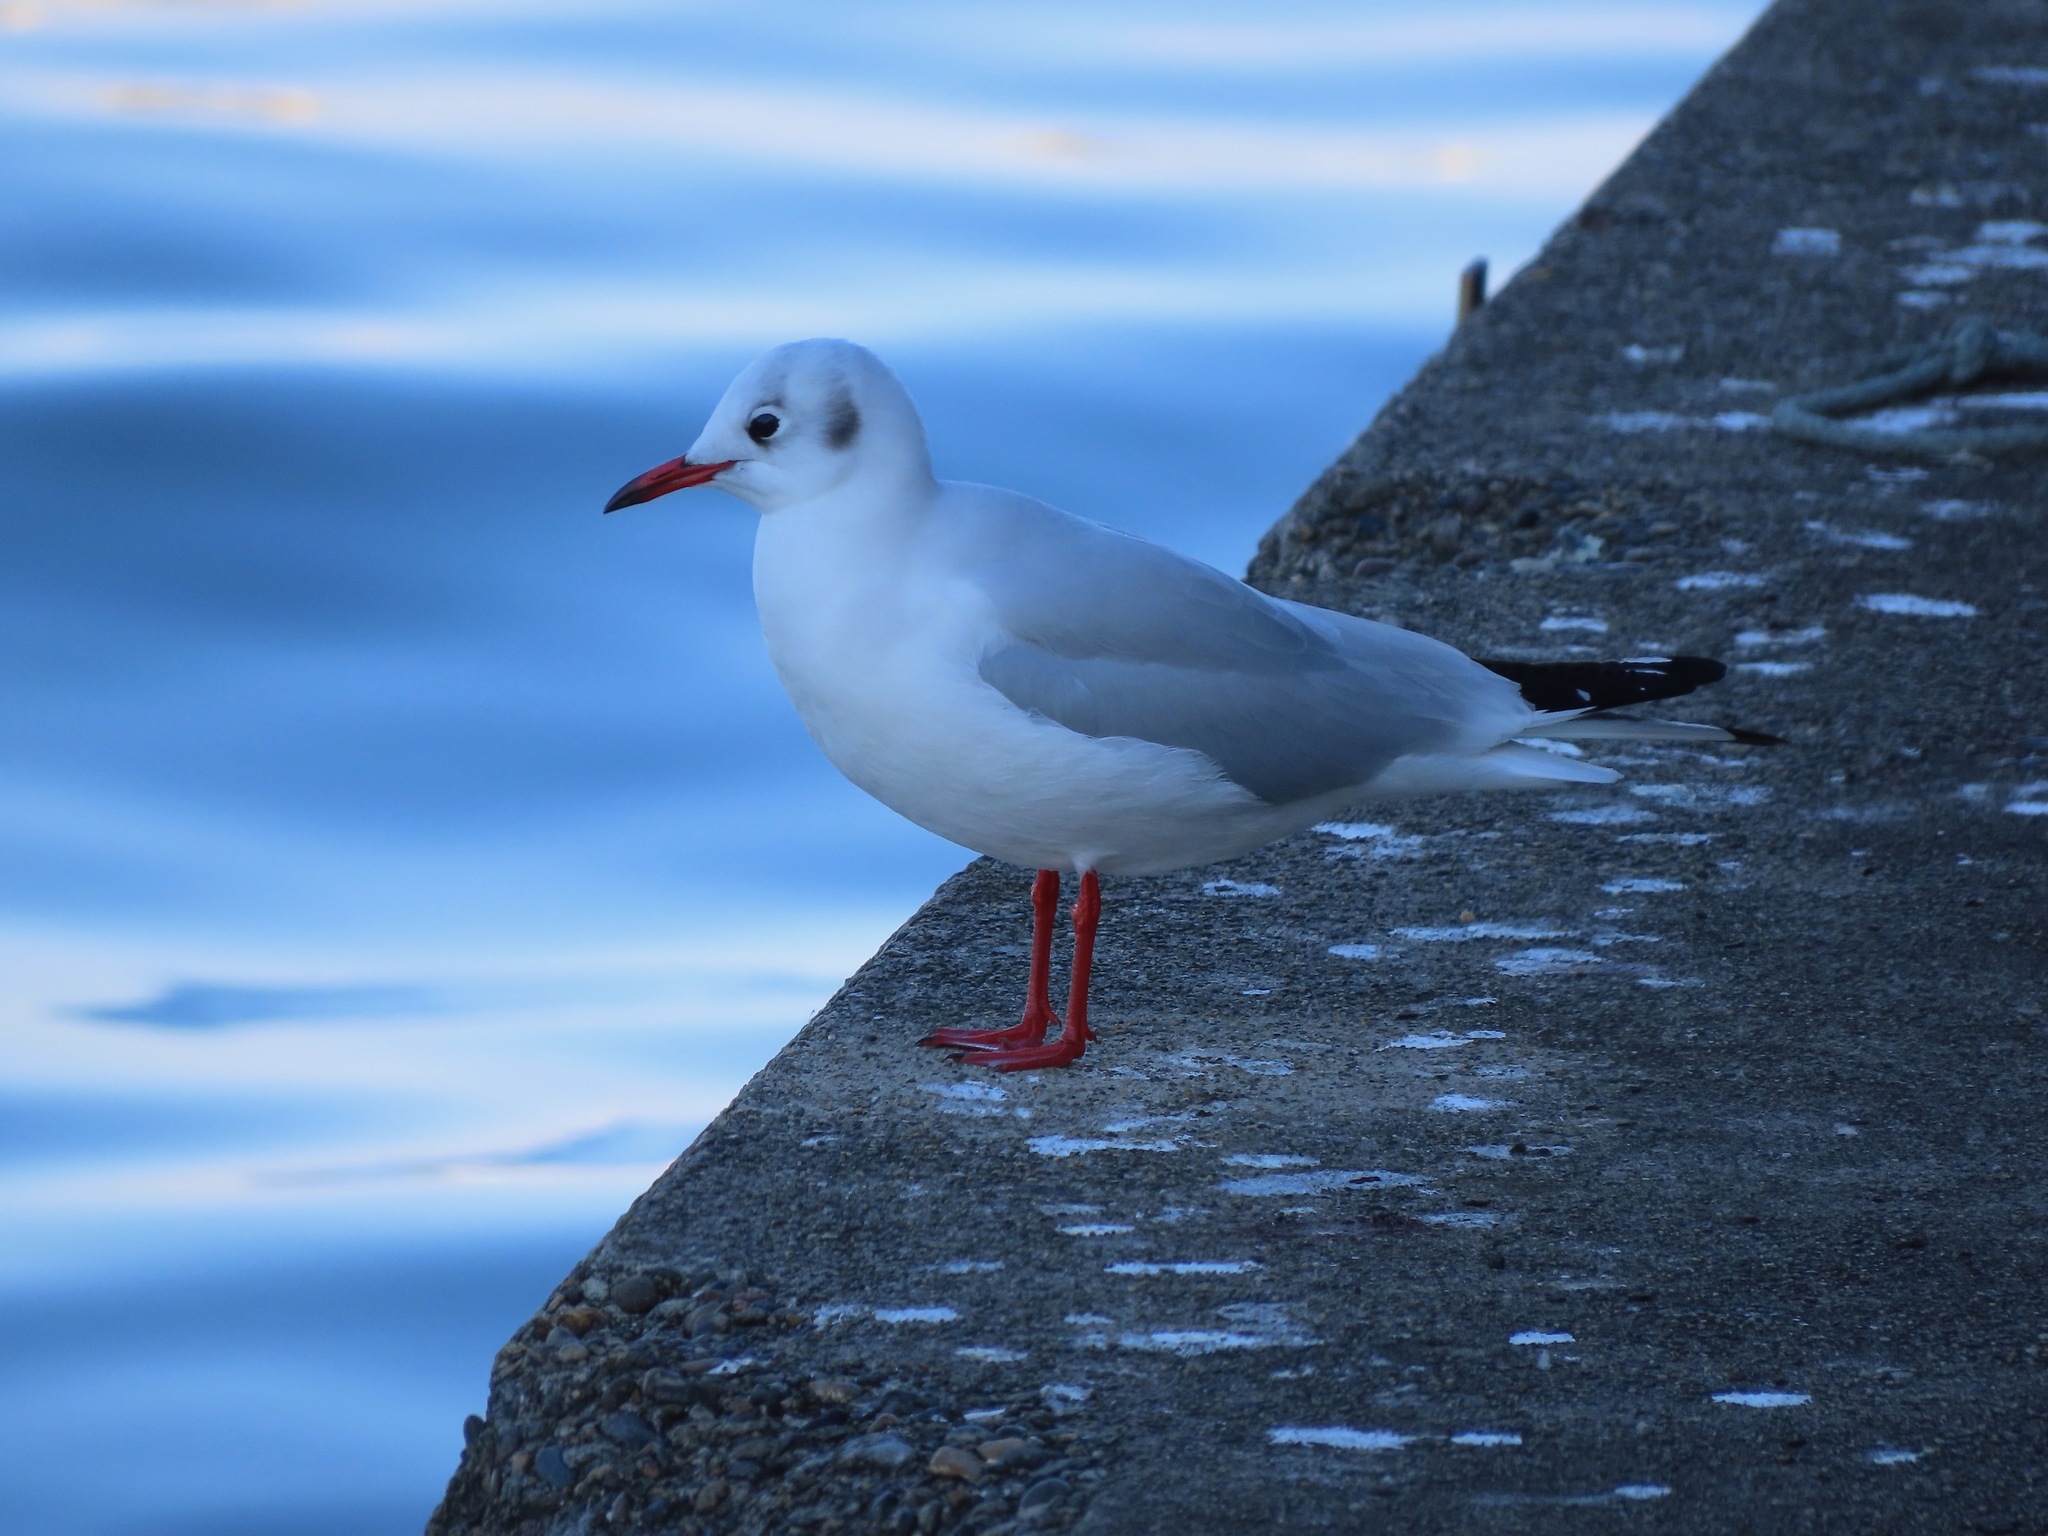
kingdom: Animalia
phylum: Chordata
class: Aves
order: Charadriiformes
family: Laridae
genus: Chroicocephalus
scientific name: Chroicocephalus ridibundus
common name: Black-headed gull
